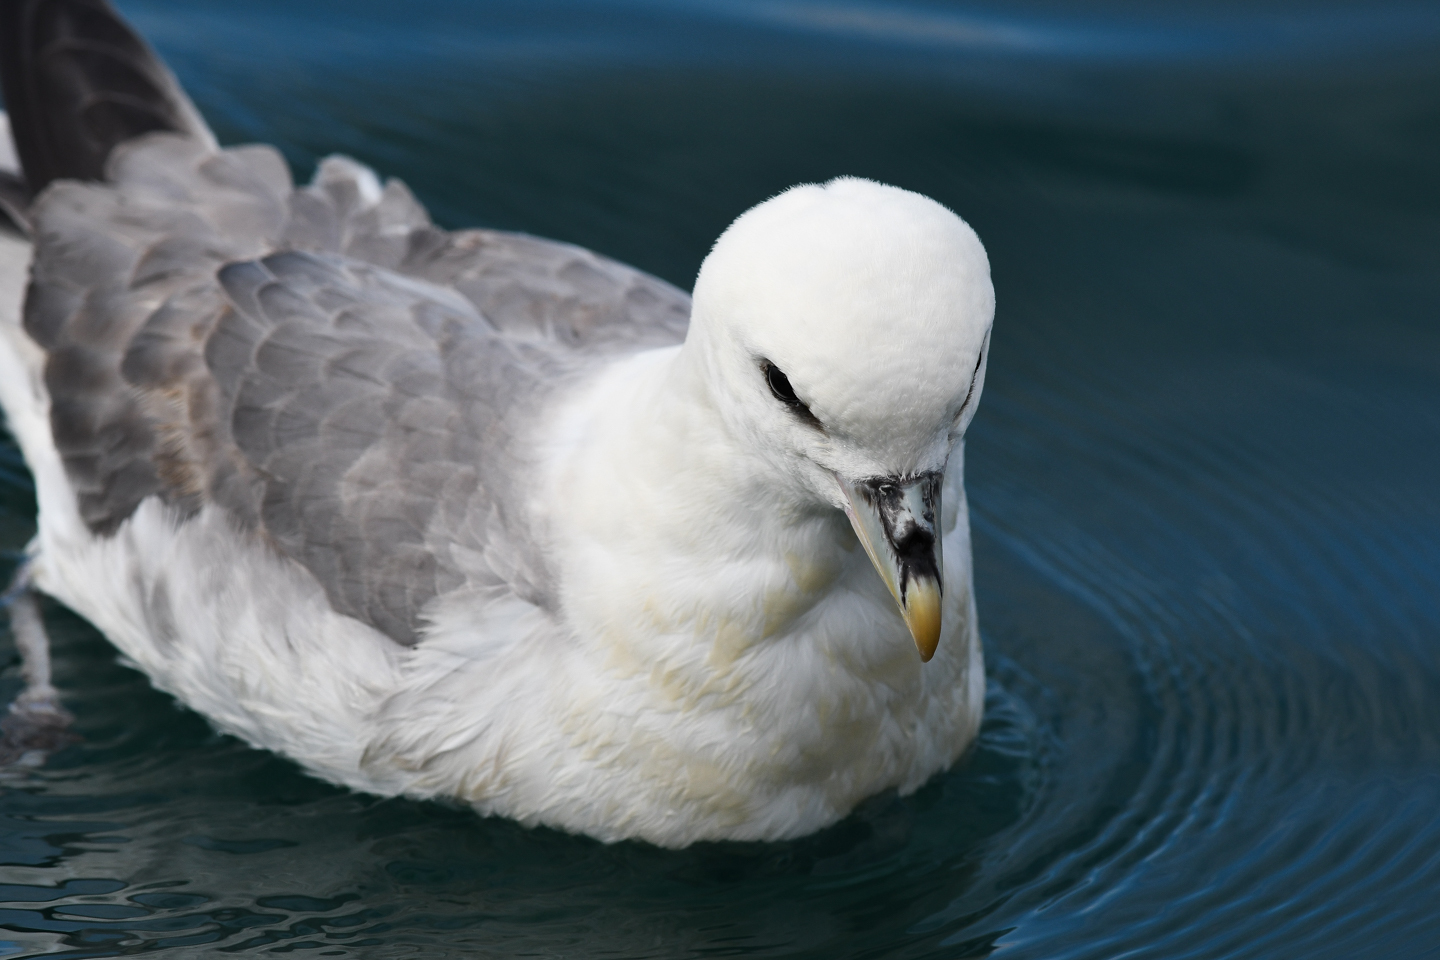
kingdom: Animalia
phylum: Chordata
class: Aves
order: Procellariiformes
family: Procellariidae
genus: Fulmarus
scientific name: Fulmarus glacialis
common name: Northern fulmar
